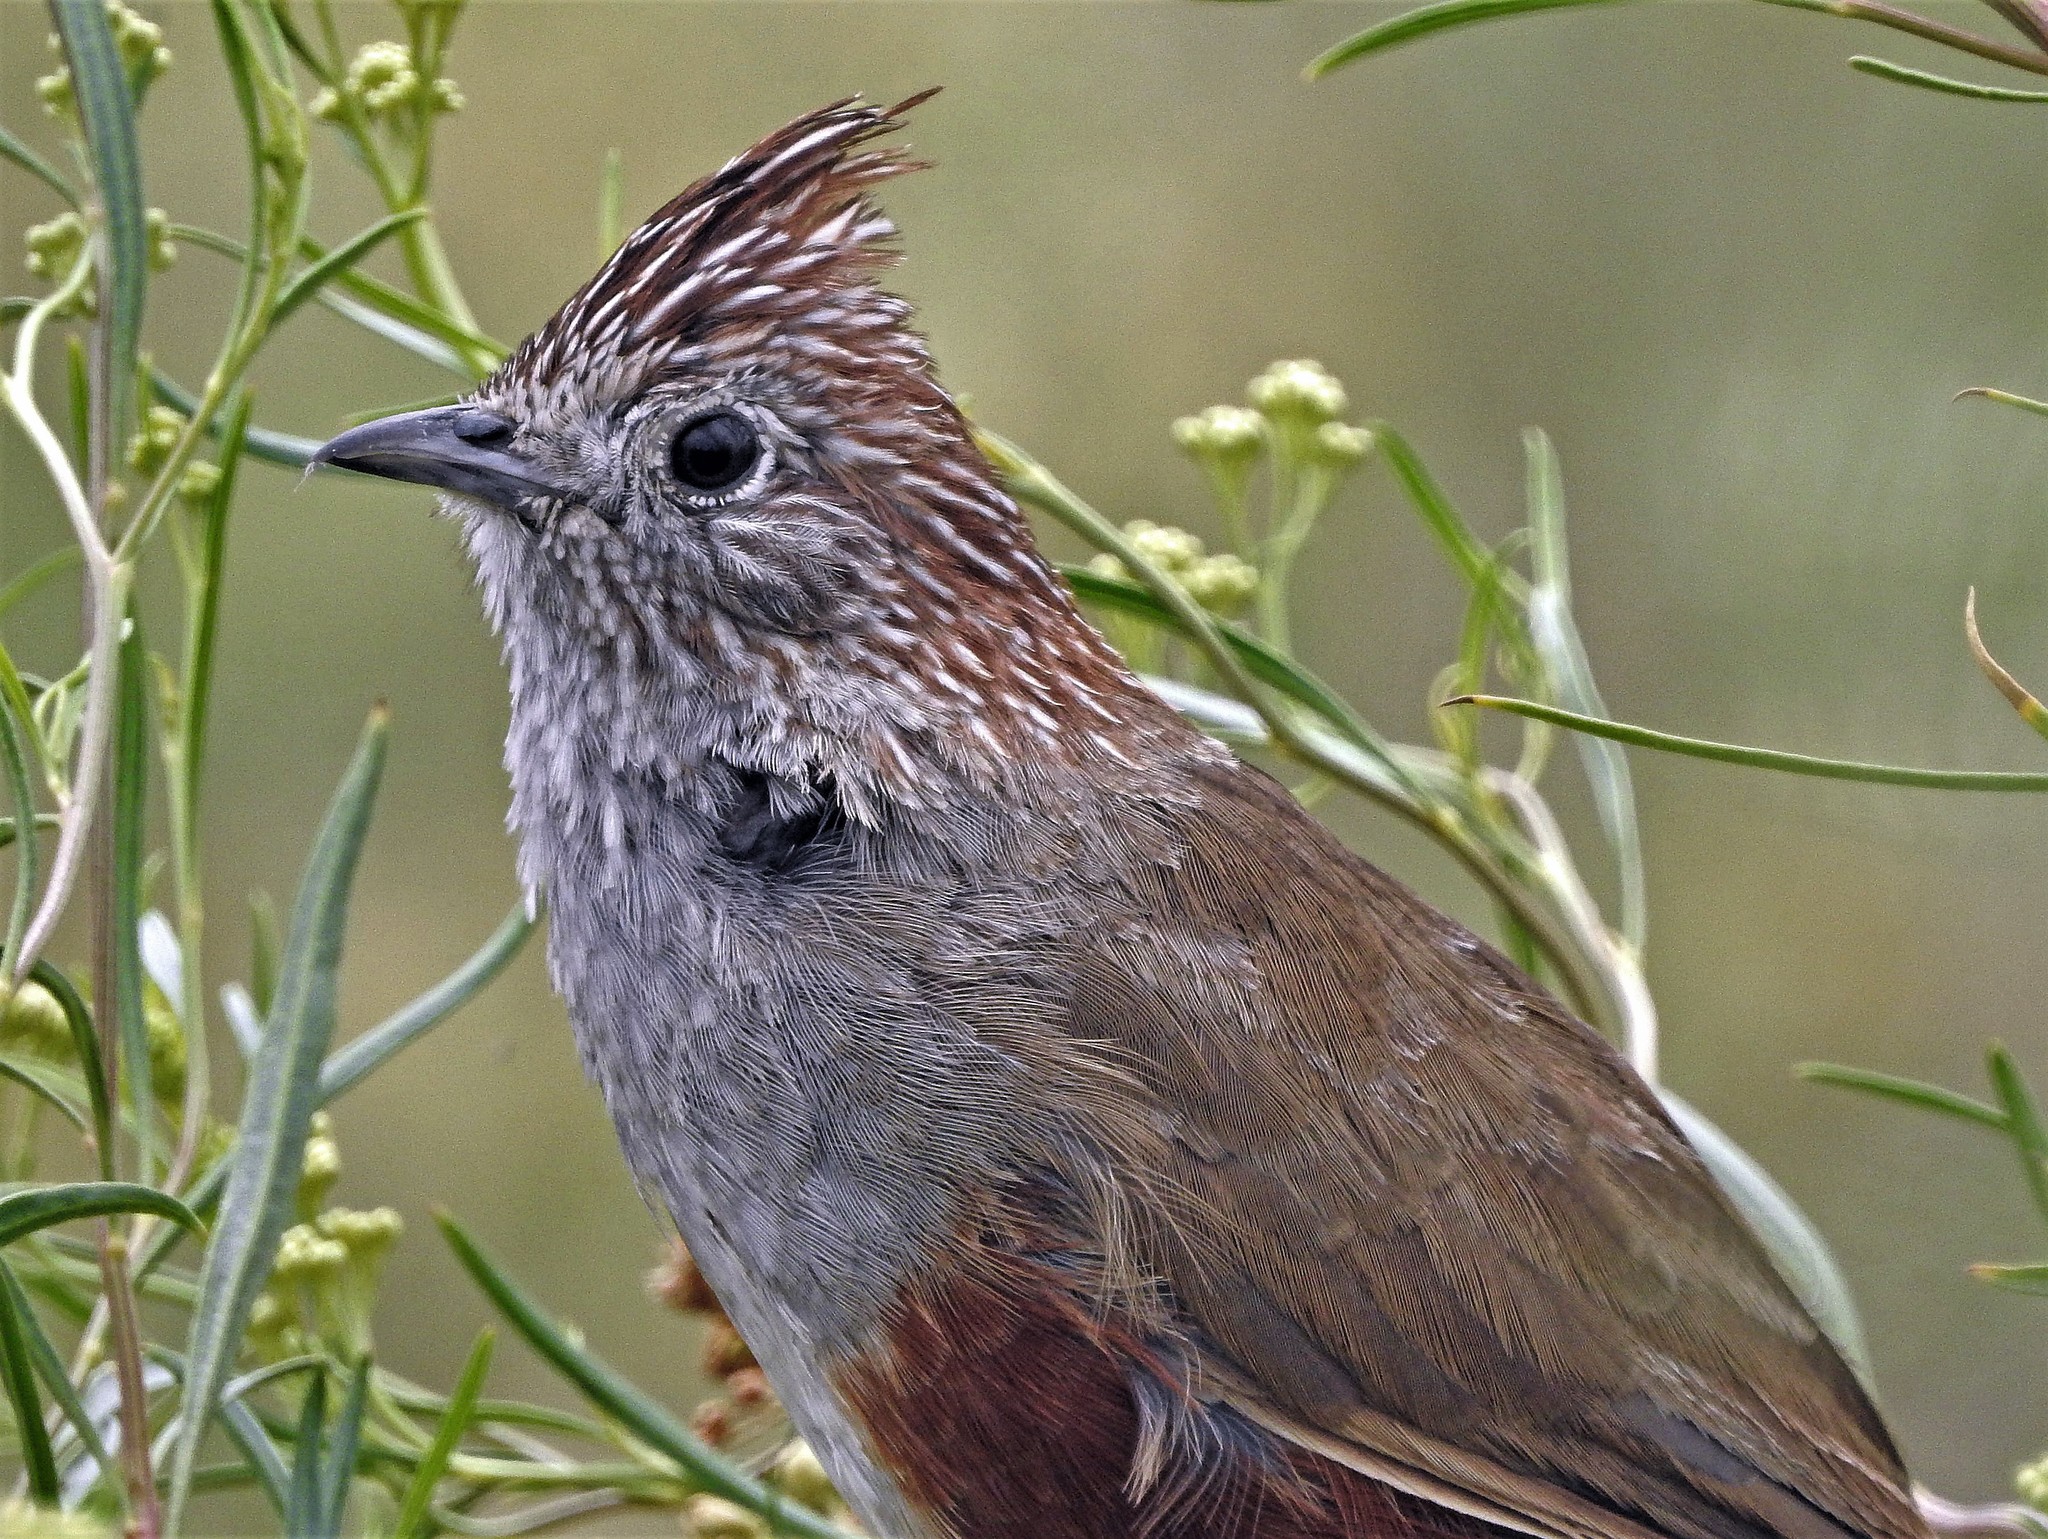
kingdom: Animalia
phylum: Chordata
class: Aves
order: Passeriformes
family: Rhinocryptidae
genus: Rhinocrypta
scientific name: Rhinocrypta lanceolata
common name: Crested gallito
